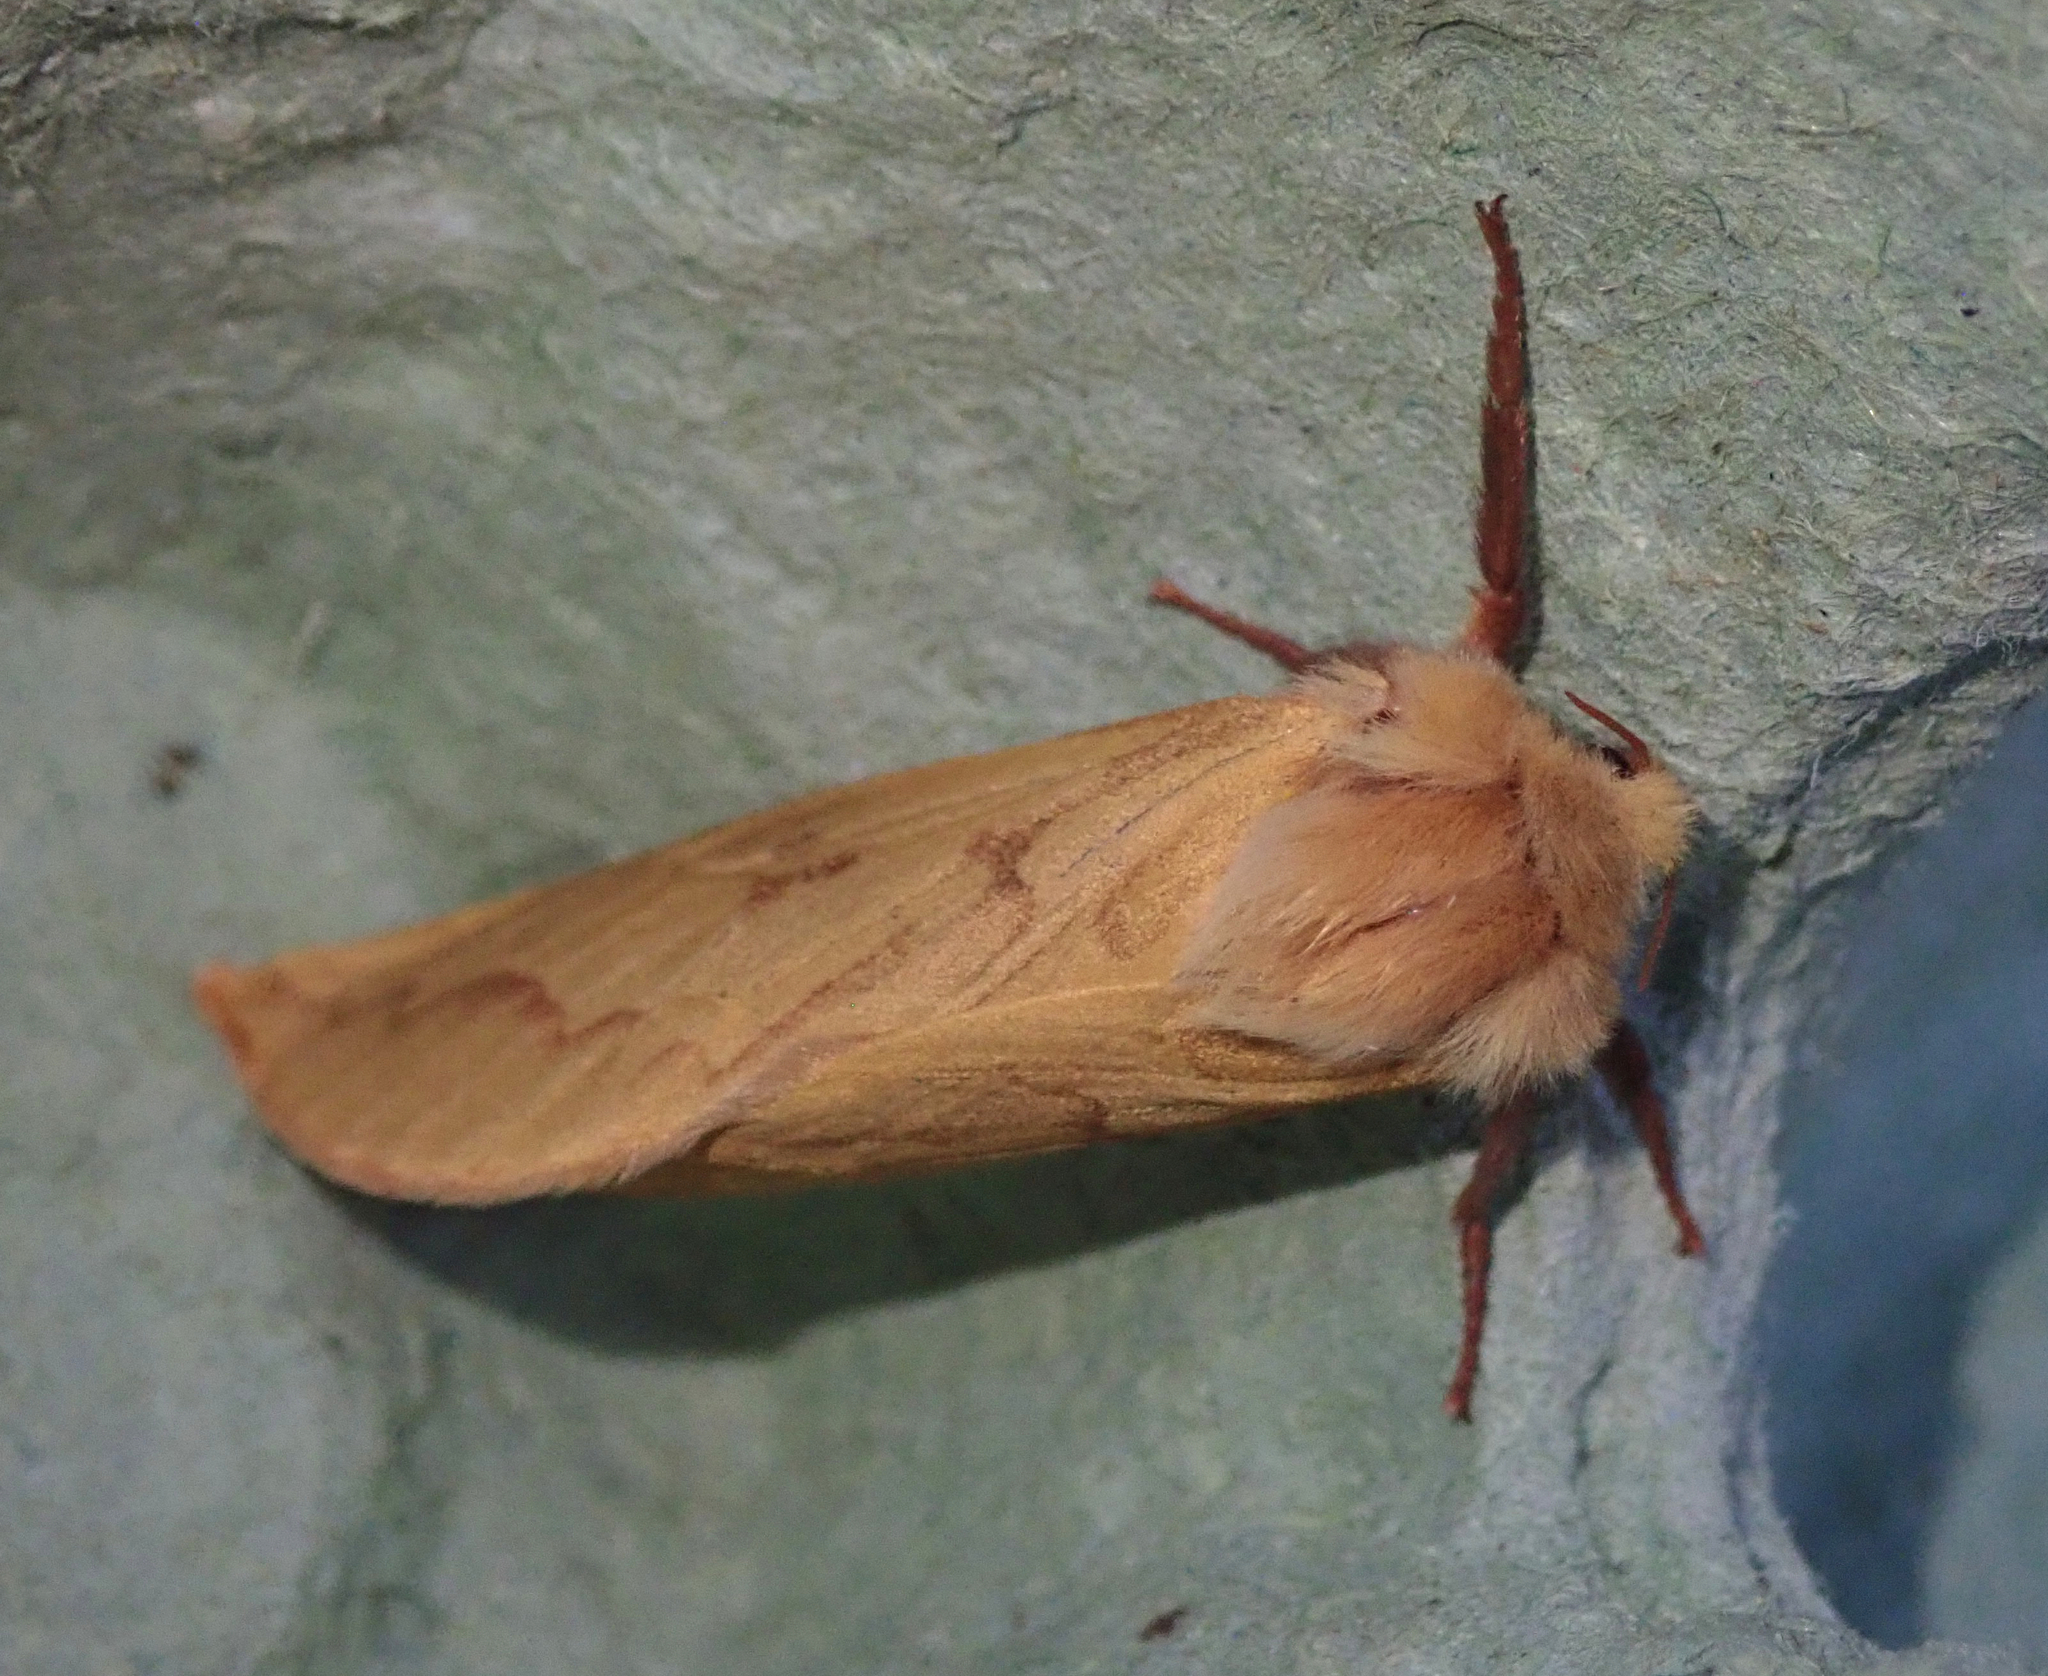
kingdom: Animalia
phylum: Arthropoda
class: Insecta
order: Lepidoptera
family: Hepialidae
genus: Hepialus
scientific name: Hepialus humuli
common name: Ghost moth
